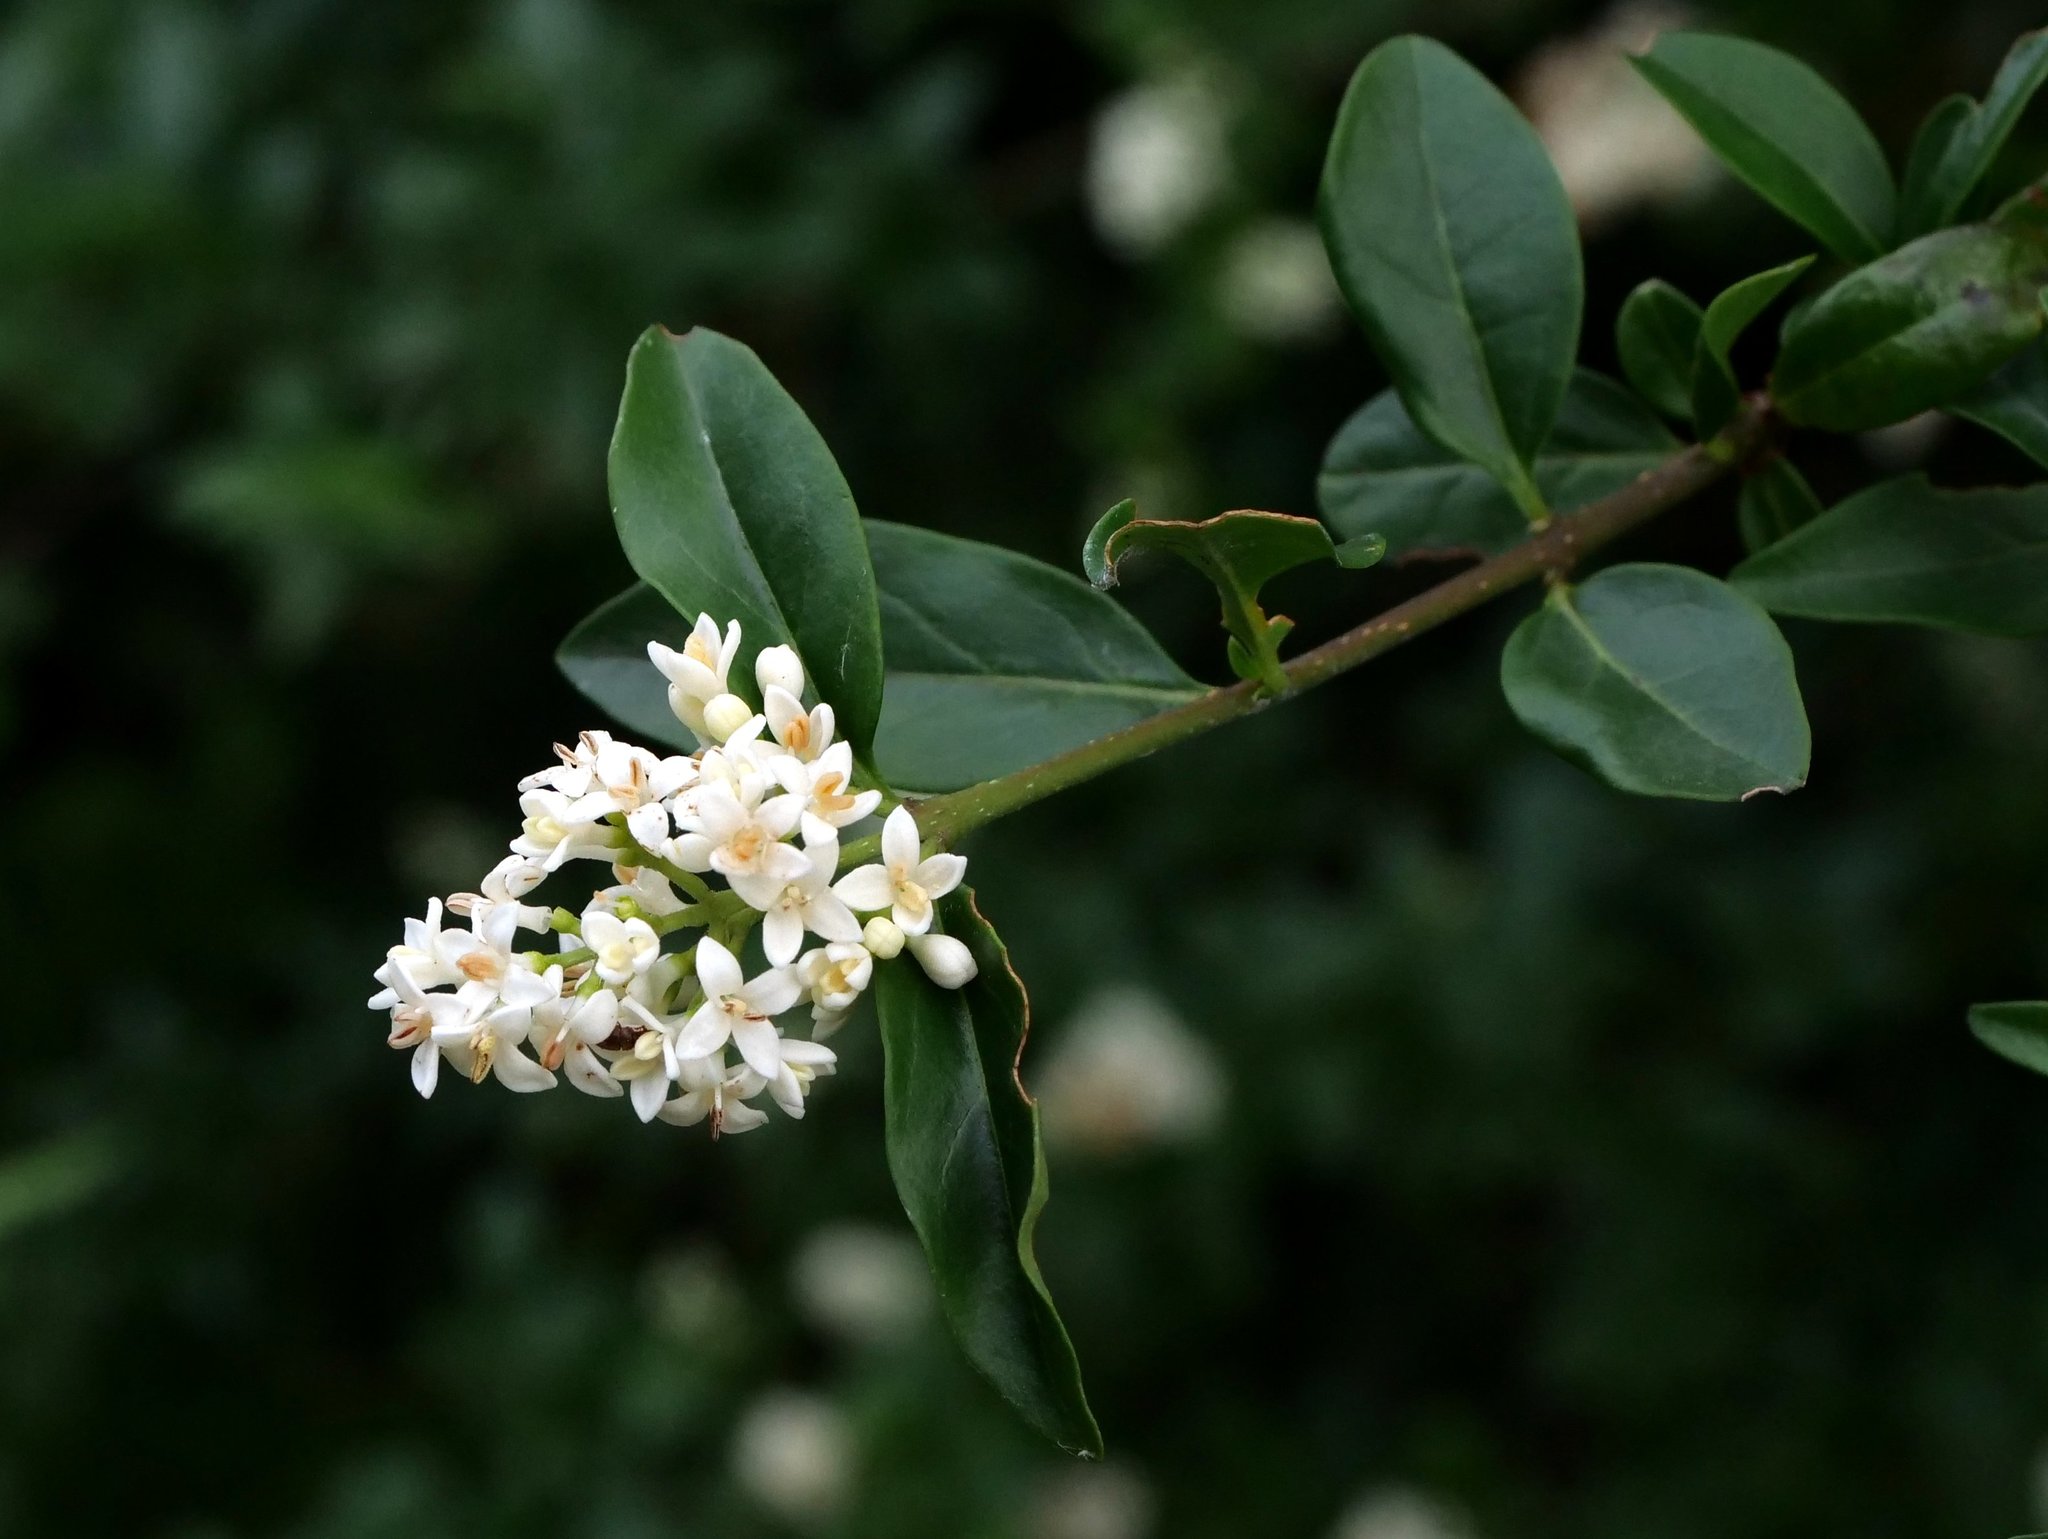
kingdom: Plantae
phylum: Tracheophyta
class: Magnoliopsida
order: Lamiales
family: Oleaceae
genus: Ligustrum
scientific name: Ligustrum vulgare
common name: Wild privet
